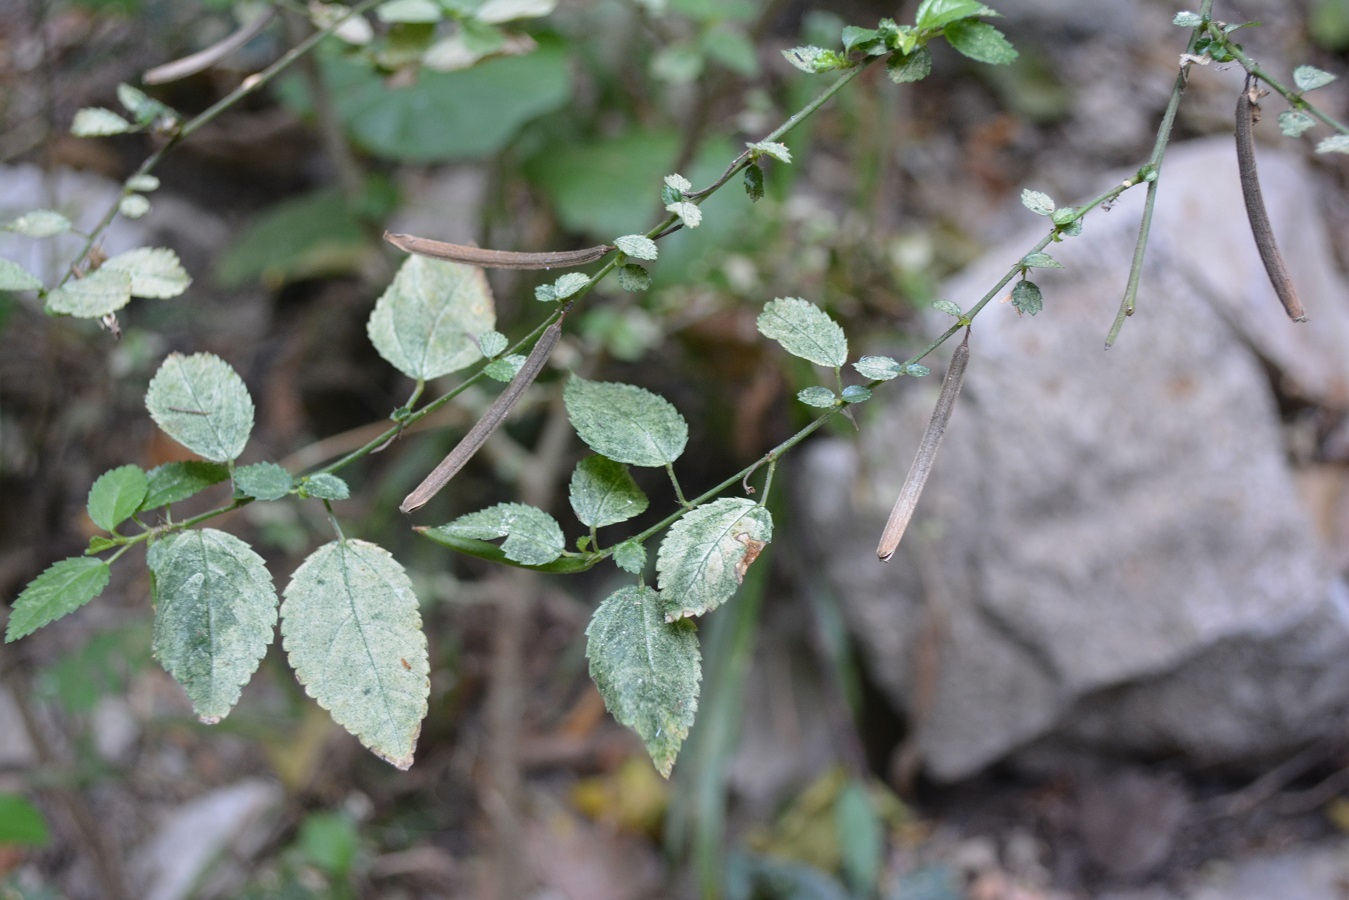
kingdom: Plantae
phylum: Tracheophyta
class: Magnoliopsida
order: Malvales
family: Malvaceae
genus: Corchorus
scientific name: Corchorus siliquosus
